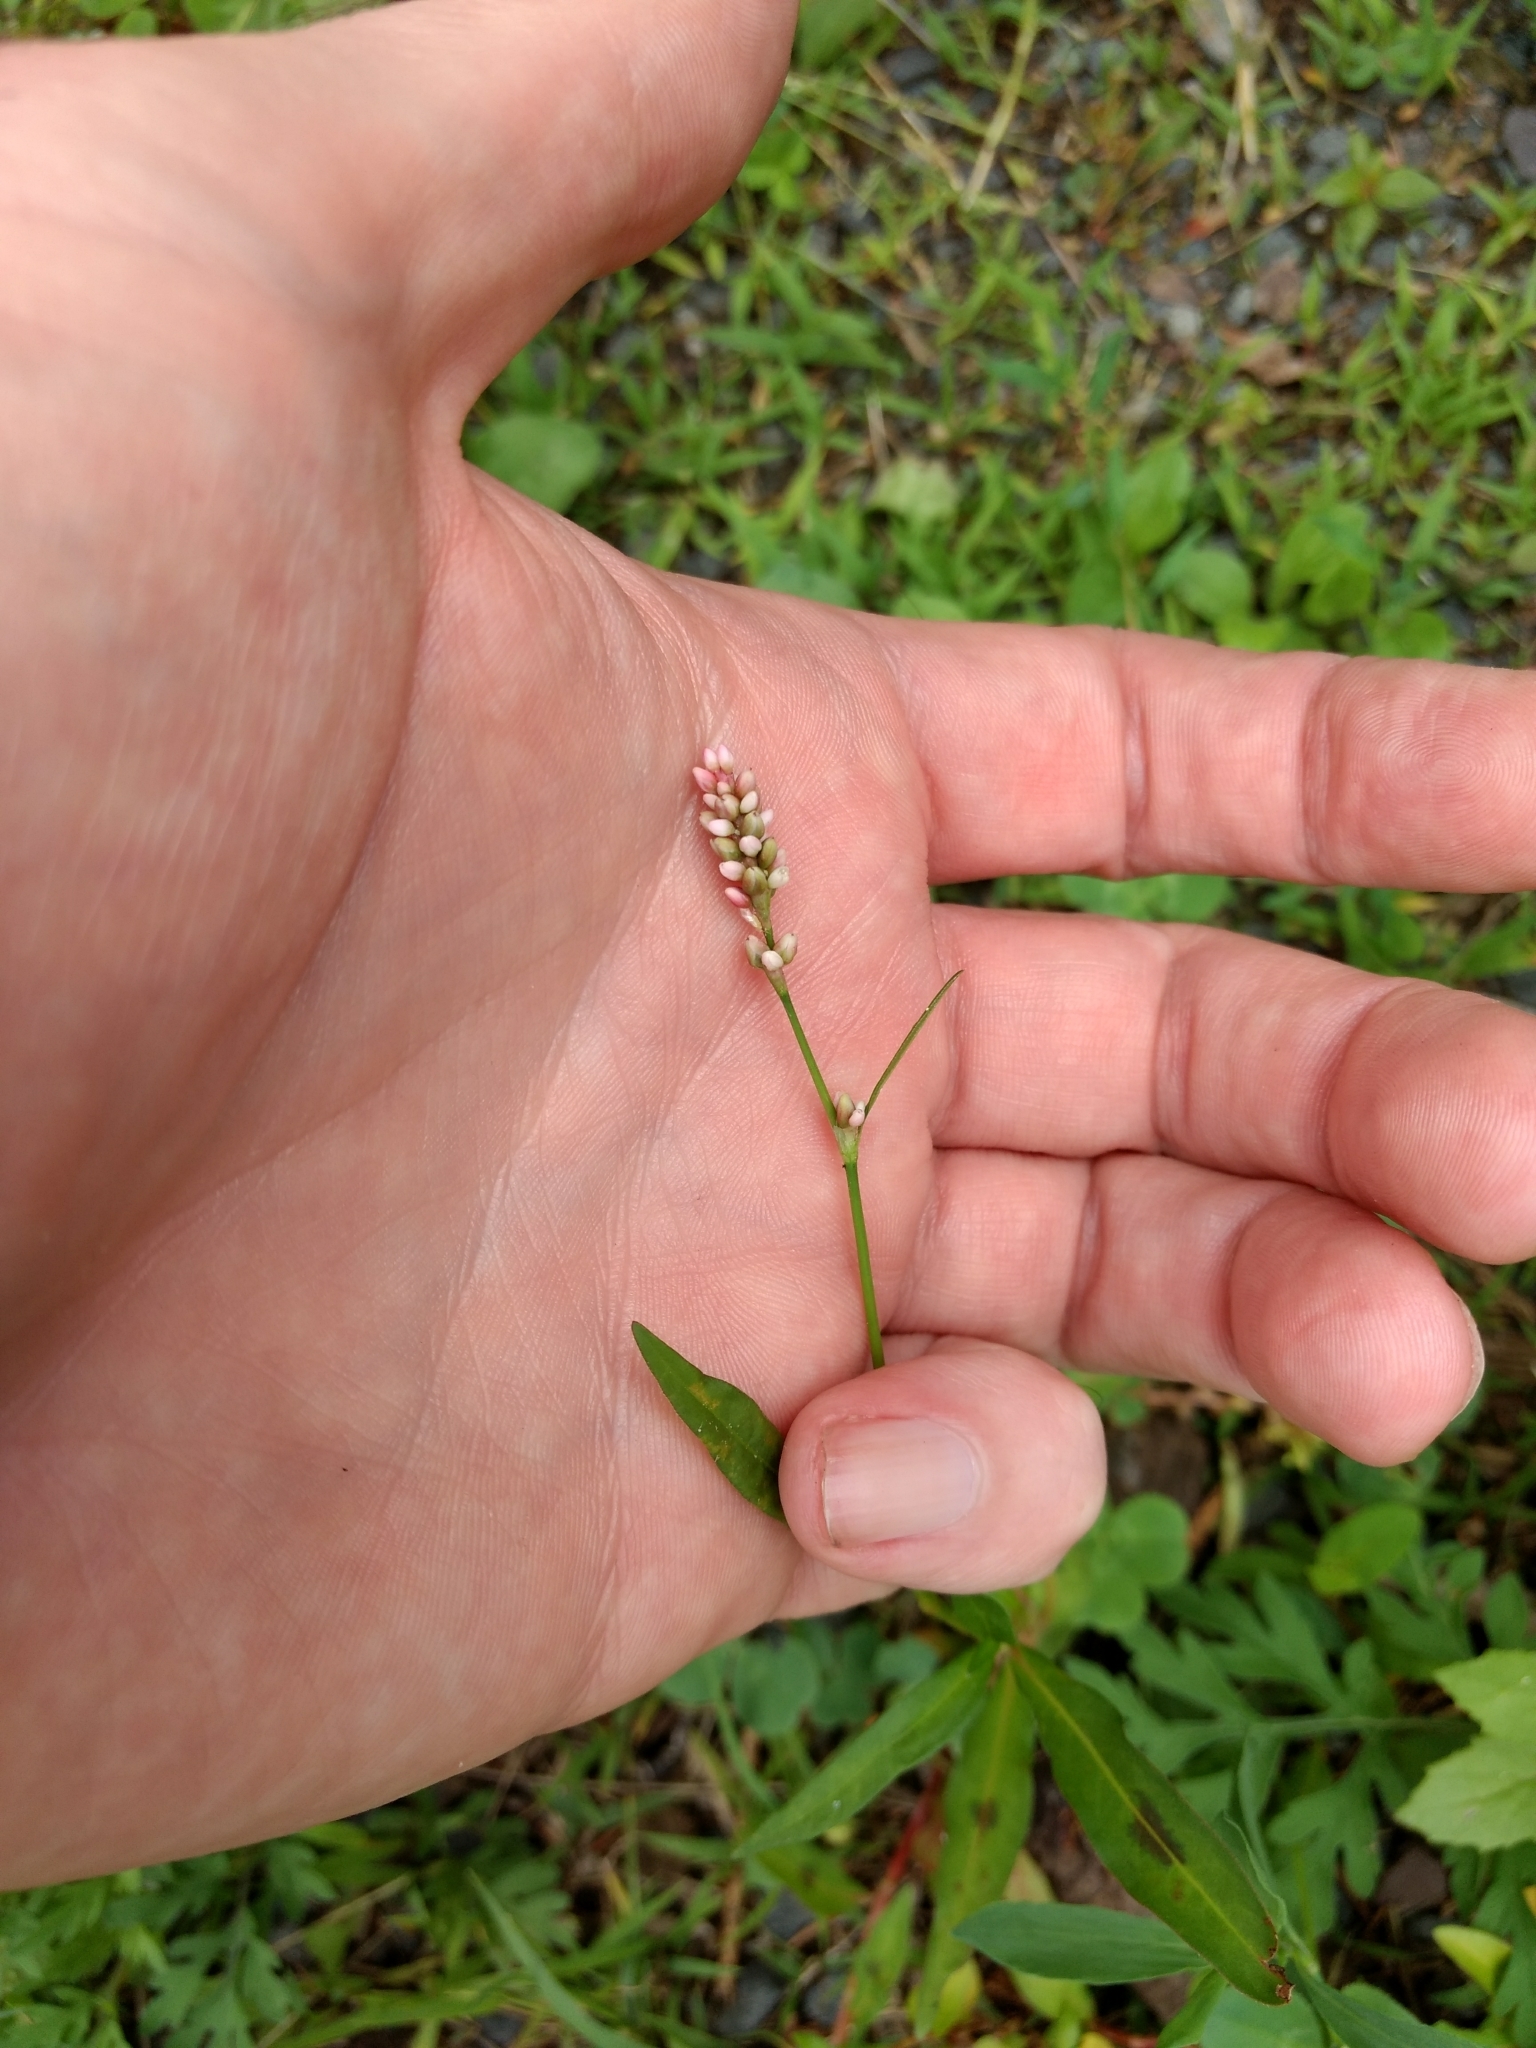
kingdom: Plantae
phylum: Tracheophyta
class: Magnoliopsida
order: Caryophyllales
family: Polygonaceae
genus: Persicaria
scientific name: Persicaria maculosa
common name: Redshank
